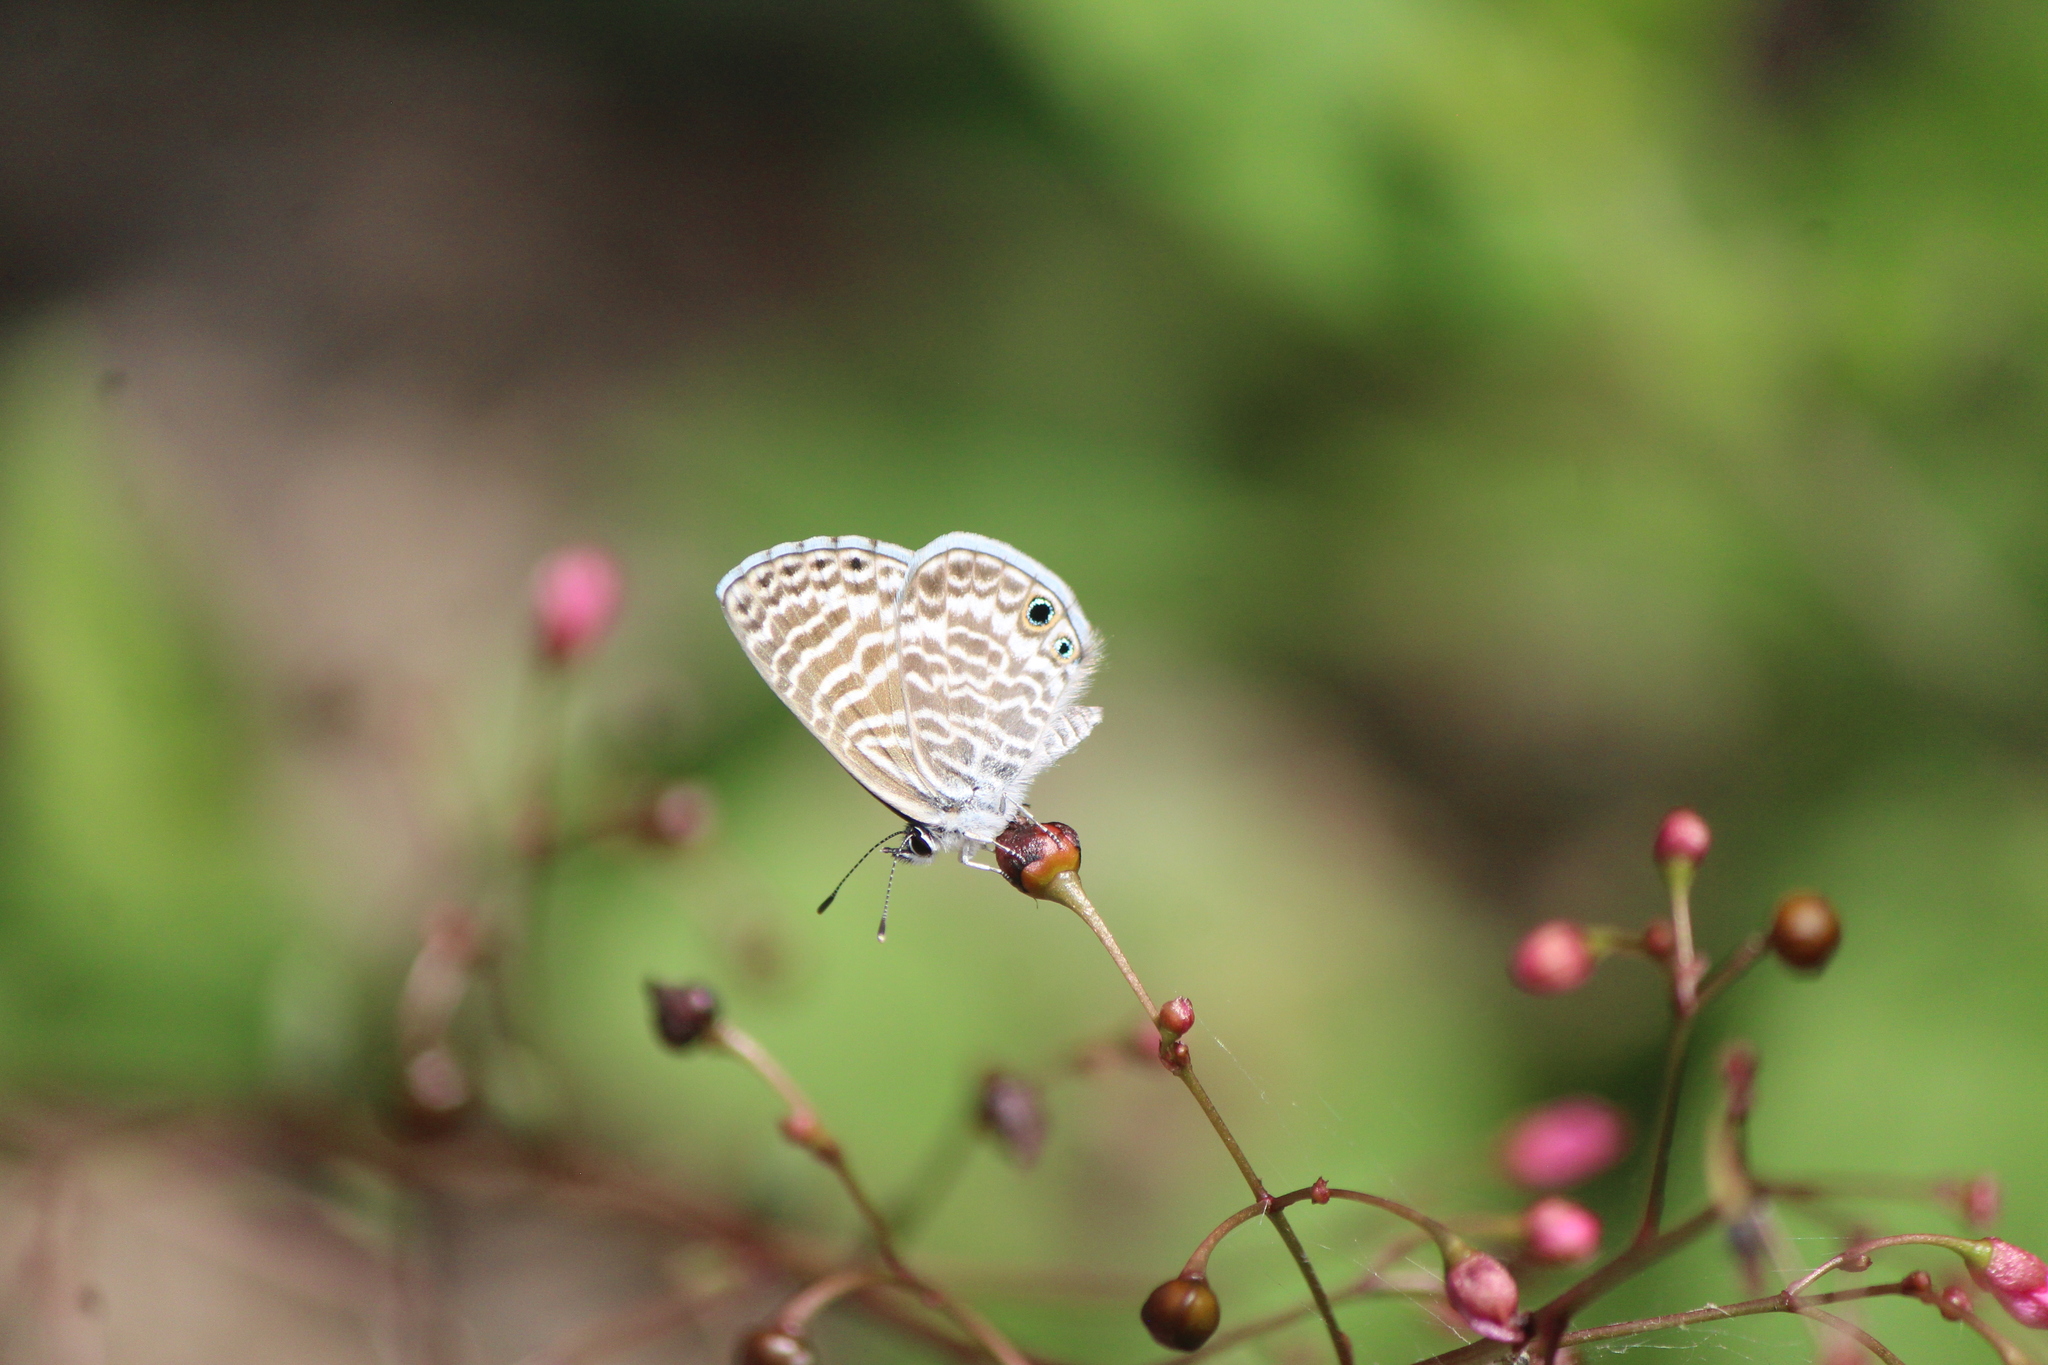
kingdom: Animalia
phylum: Arthropoda
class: Insecta
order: Lepidoptera
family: Lycaenidae
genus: Leptotes
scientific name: Leptotes marina
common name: Marine blue
